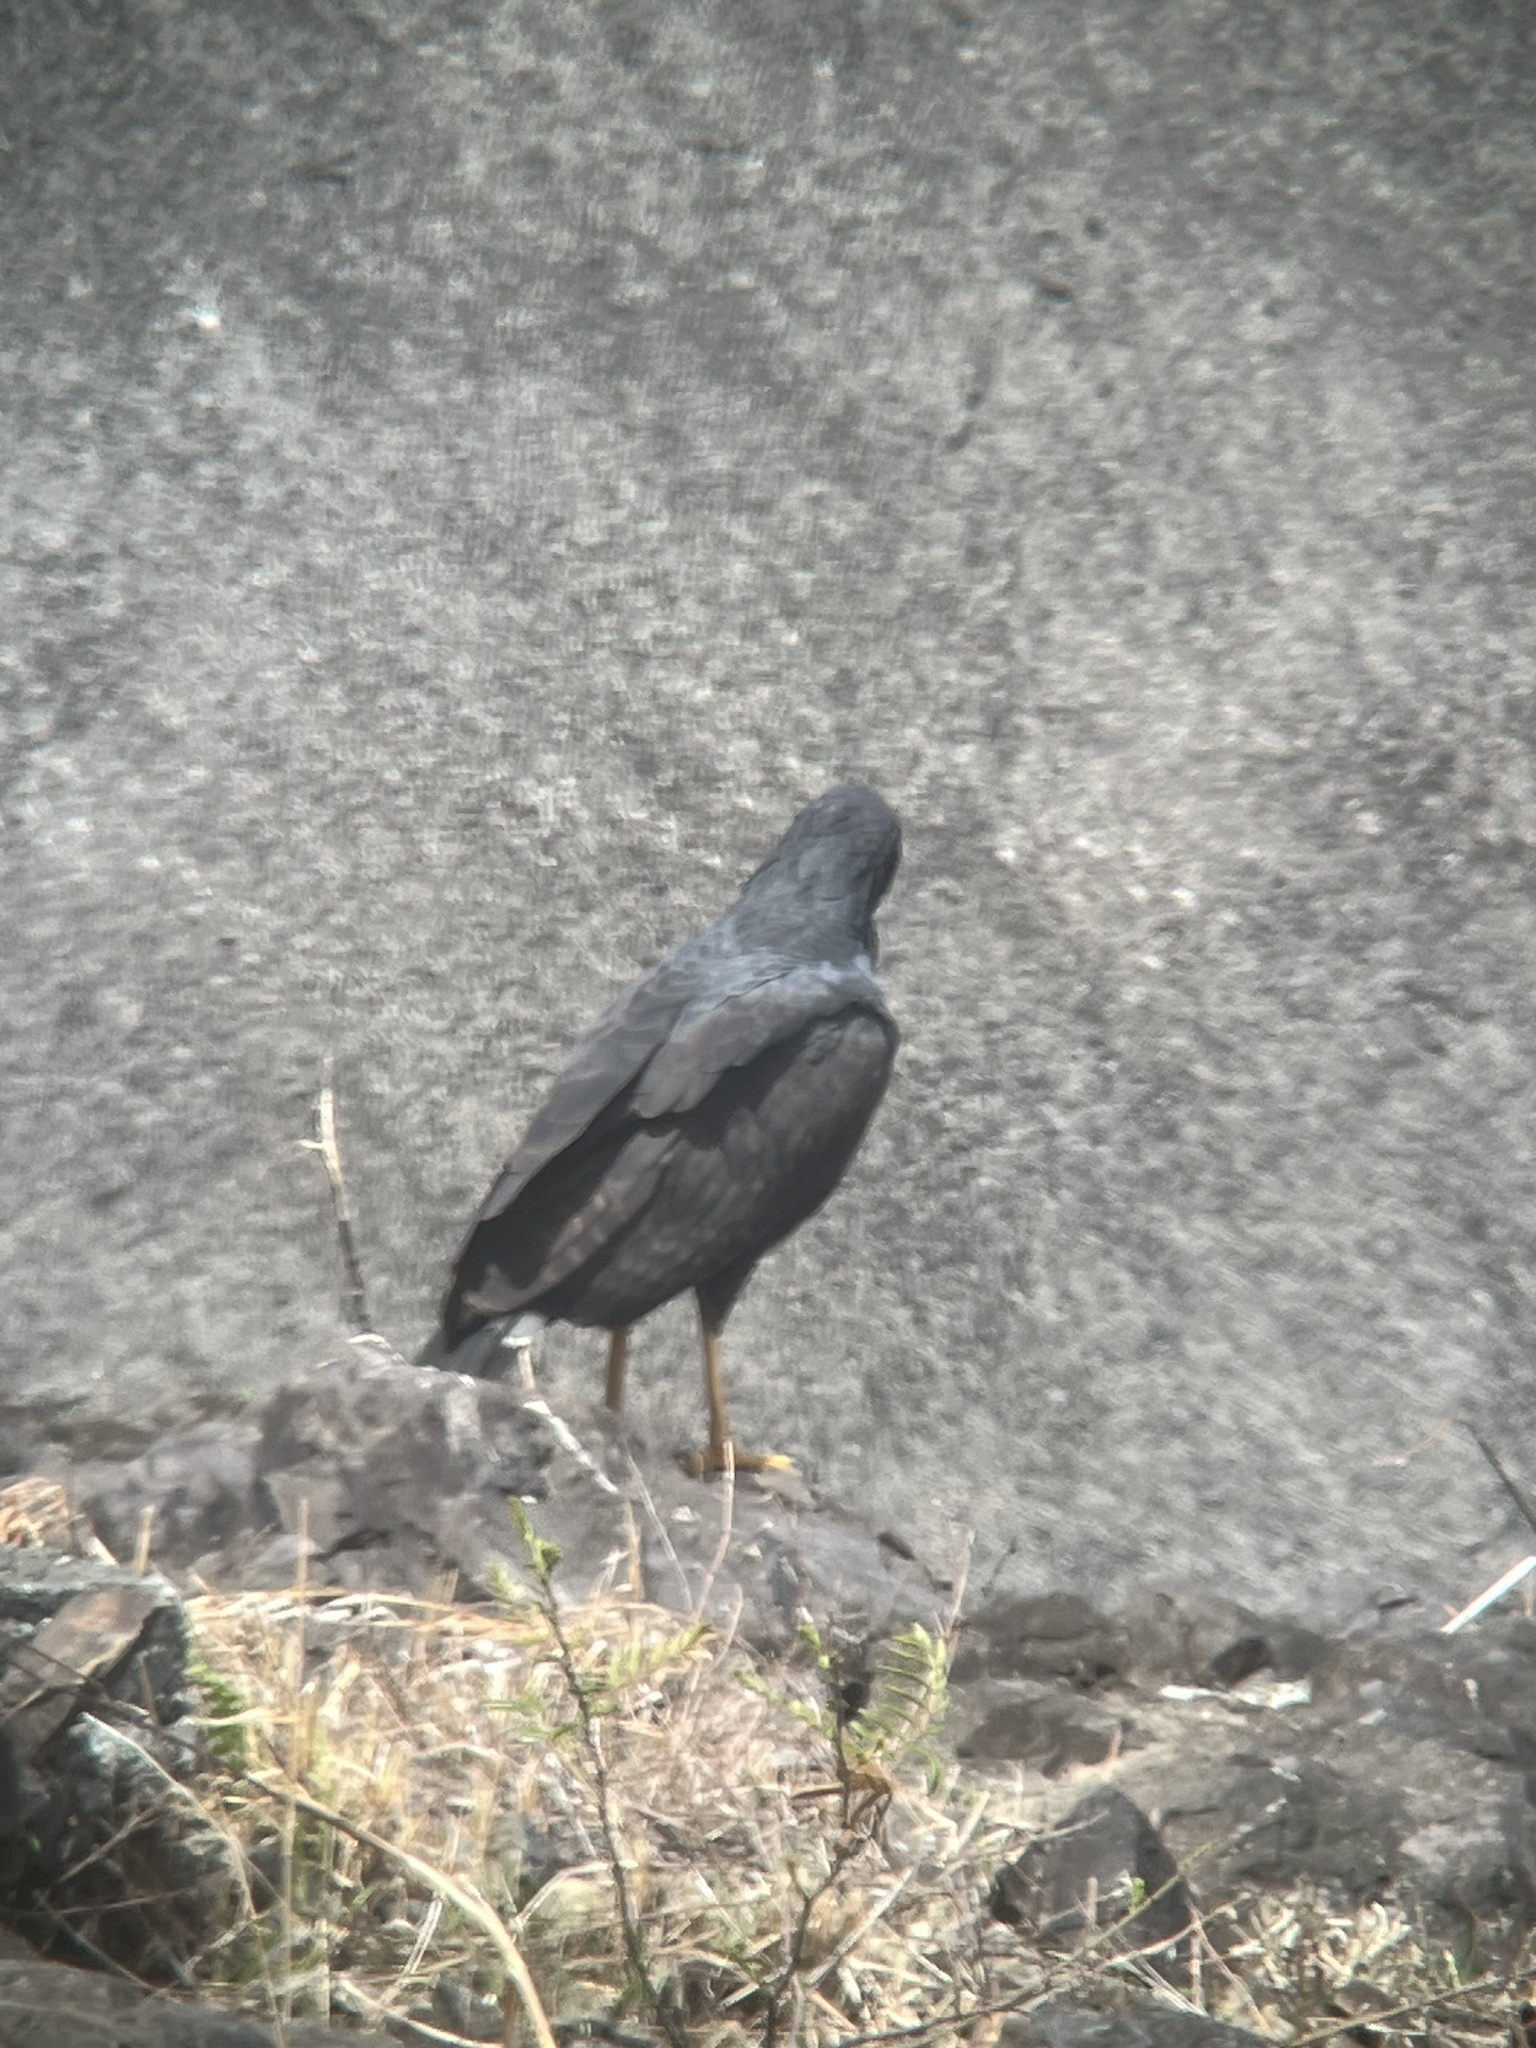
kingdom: Animalia
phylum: Chordata
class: Aves
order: Accipitriformes
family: Accipitridae
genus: Buteogallus
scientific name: Buteogallus urubitinga
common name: Great black hawk
